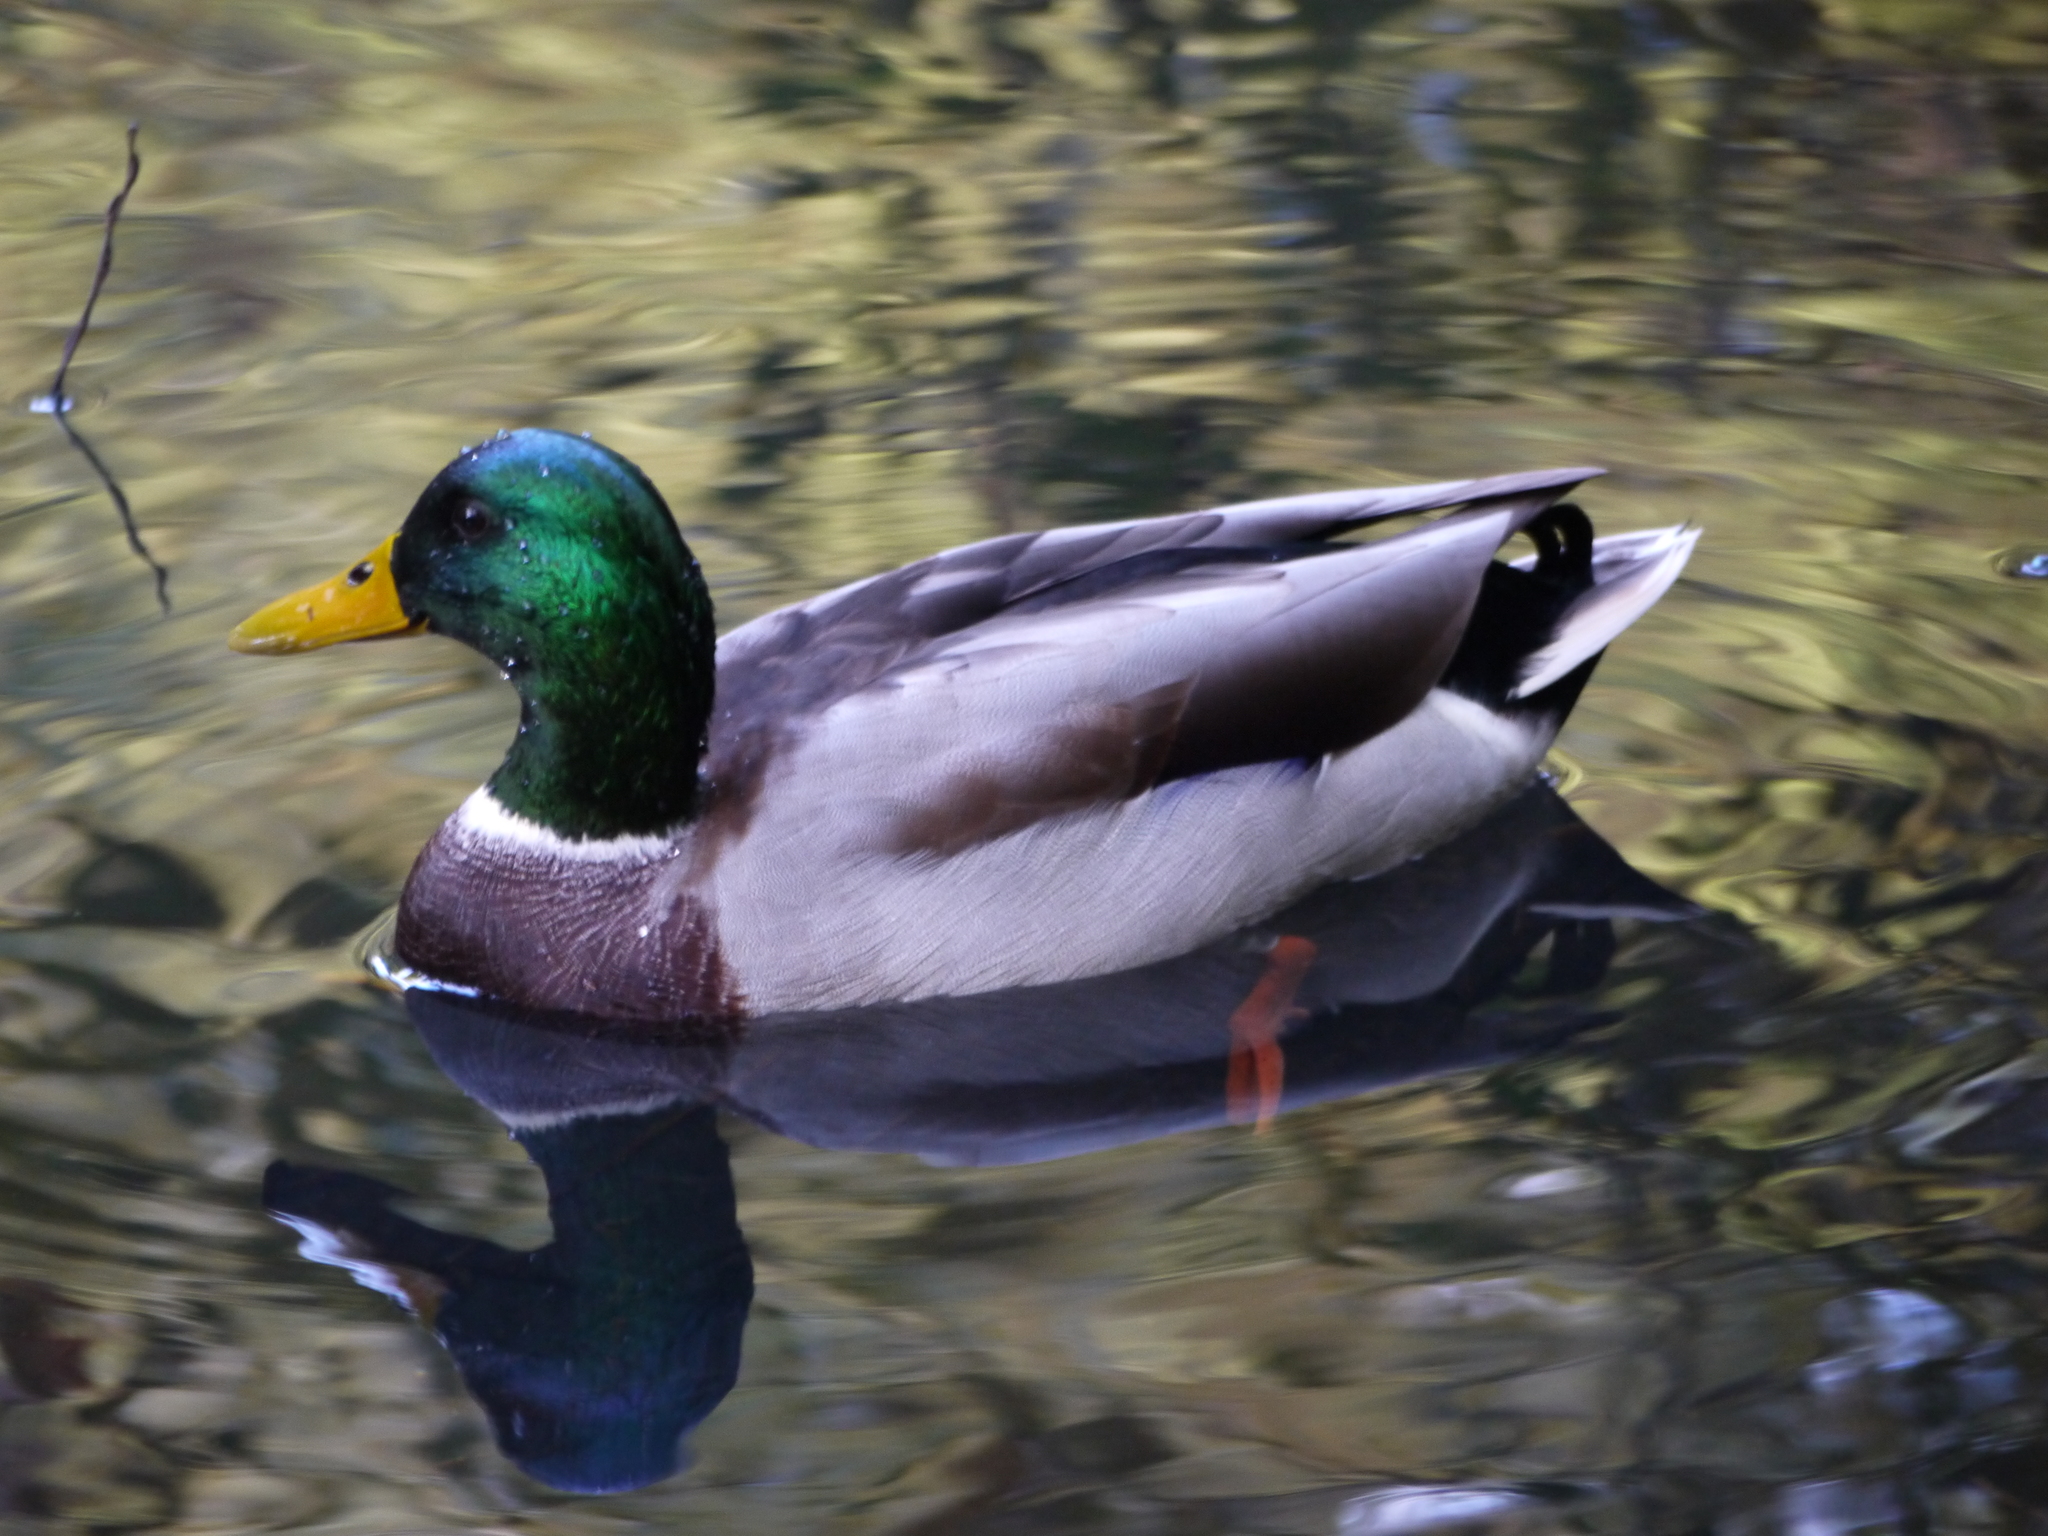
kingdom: Animalia
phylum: Chordata
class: Aves
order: Anseriformes
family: Anatidae
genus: Anas
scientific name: Anas platyrhynchos
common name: Mallard
